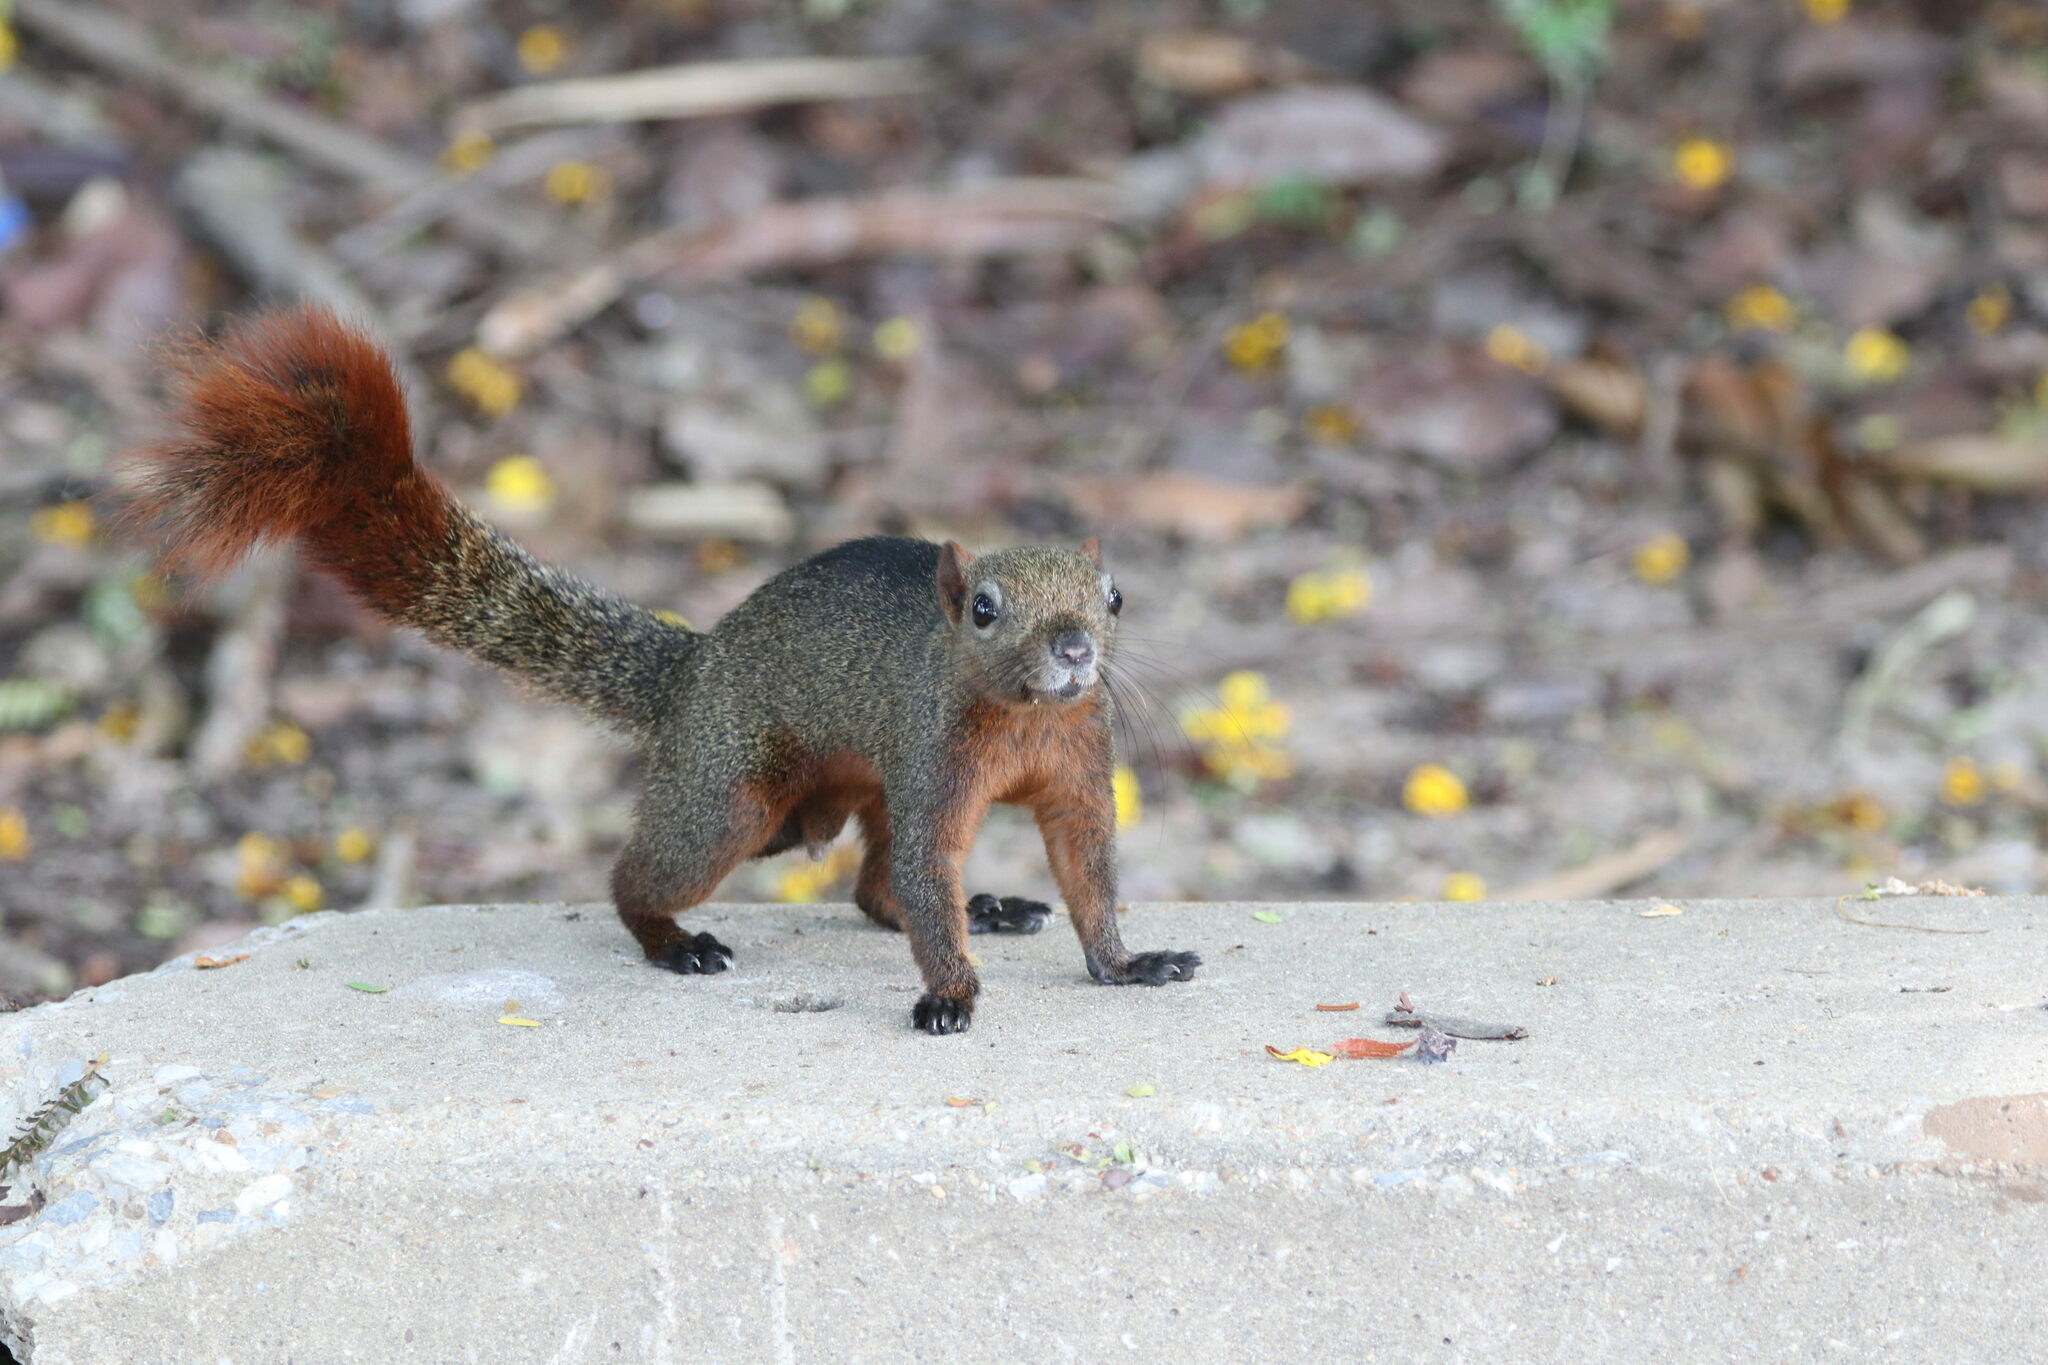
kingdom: Animalia
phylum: Chordata
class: Mammalia
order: Rodentia
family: Sciuridae
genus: Callosciurus
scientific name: Callosciurus erythraeus
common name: Pallas's squirrel
